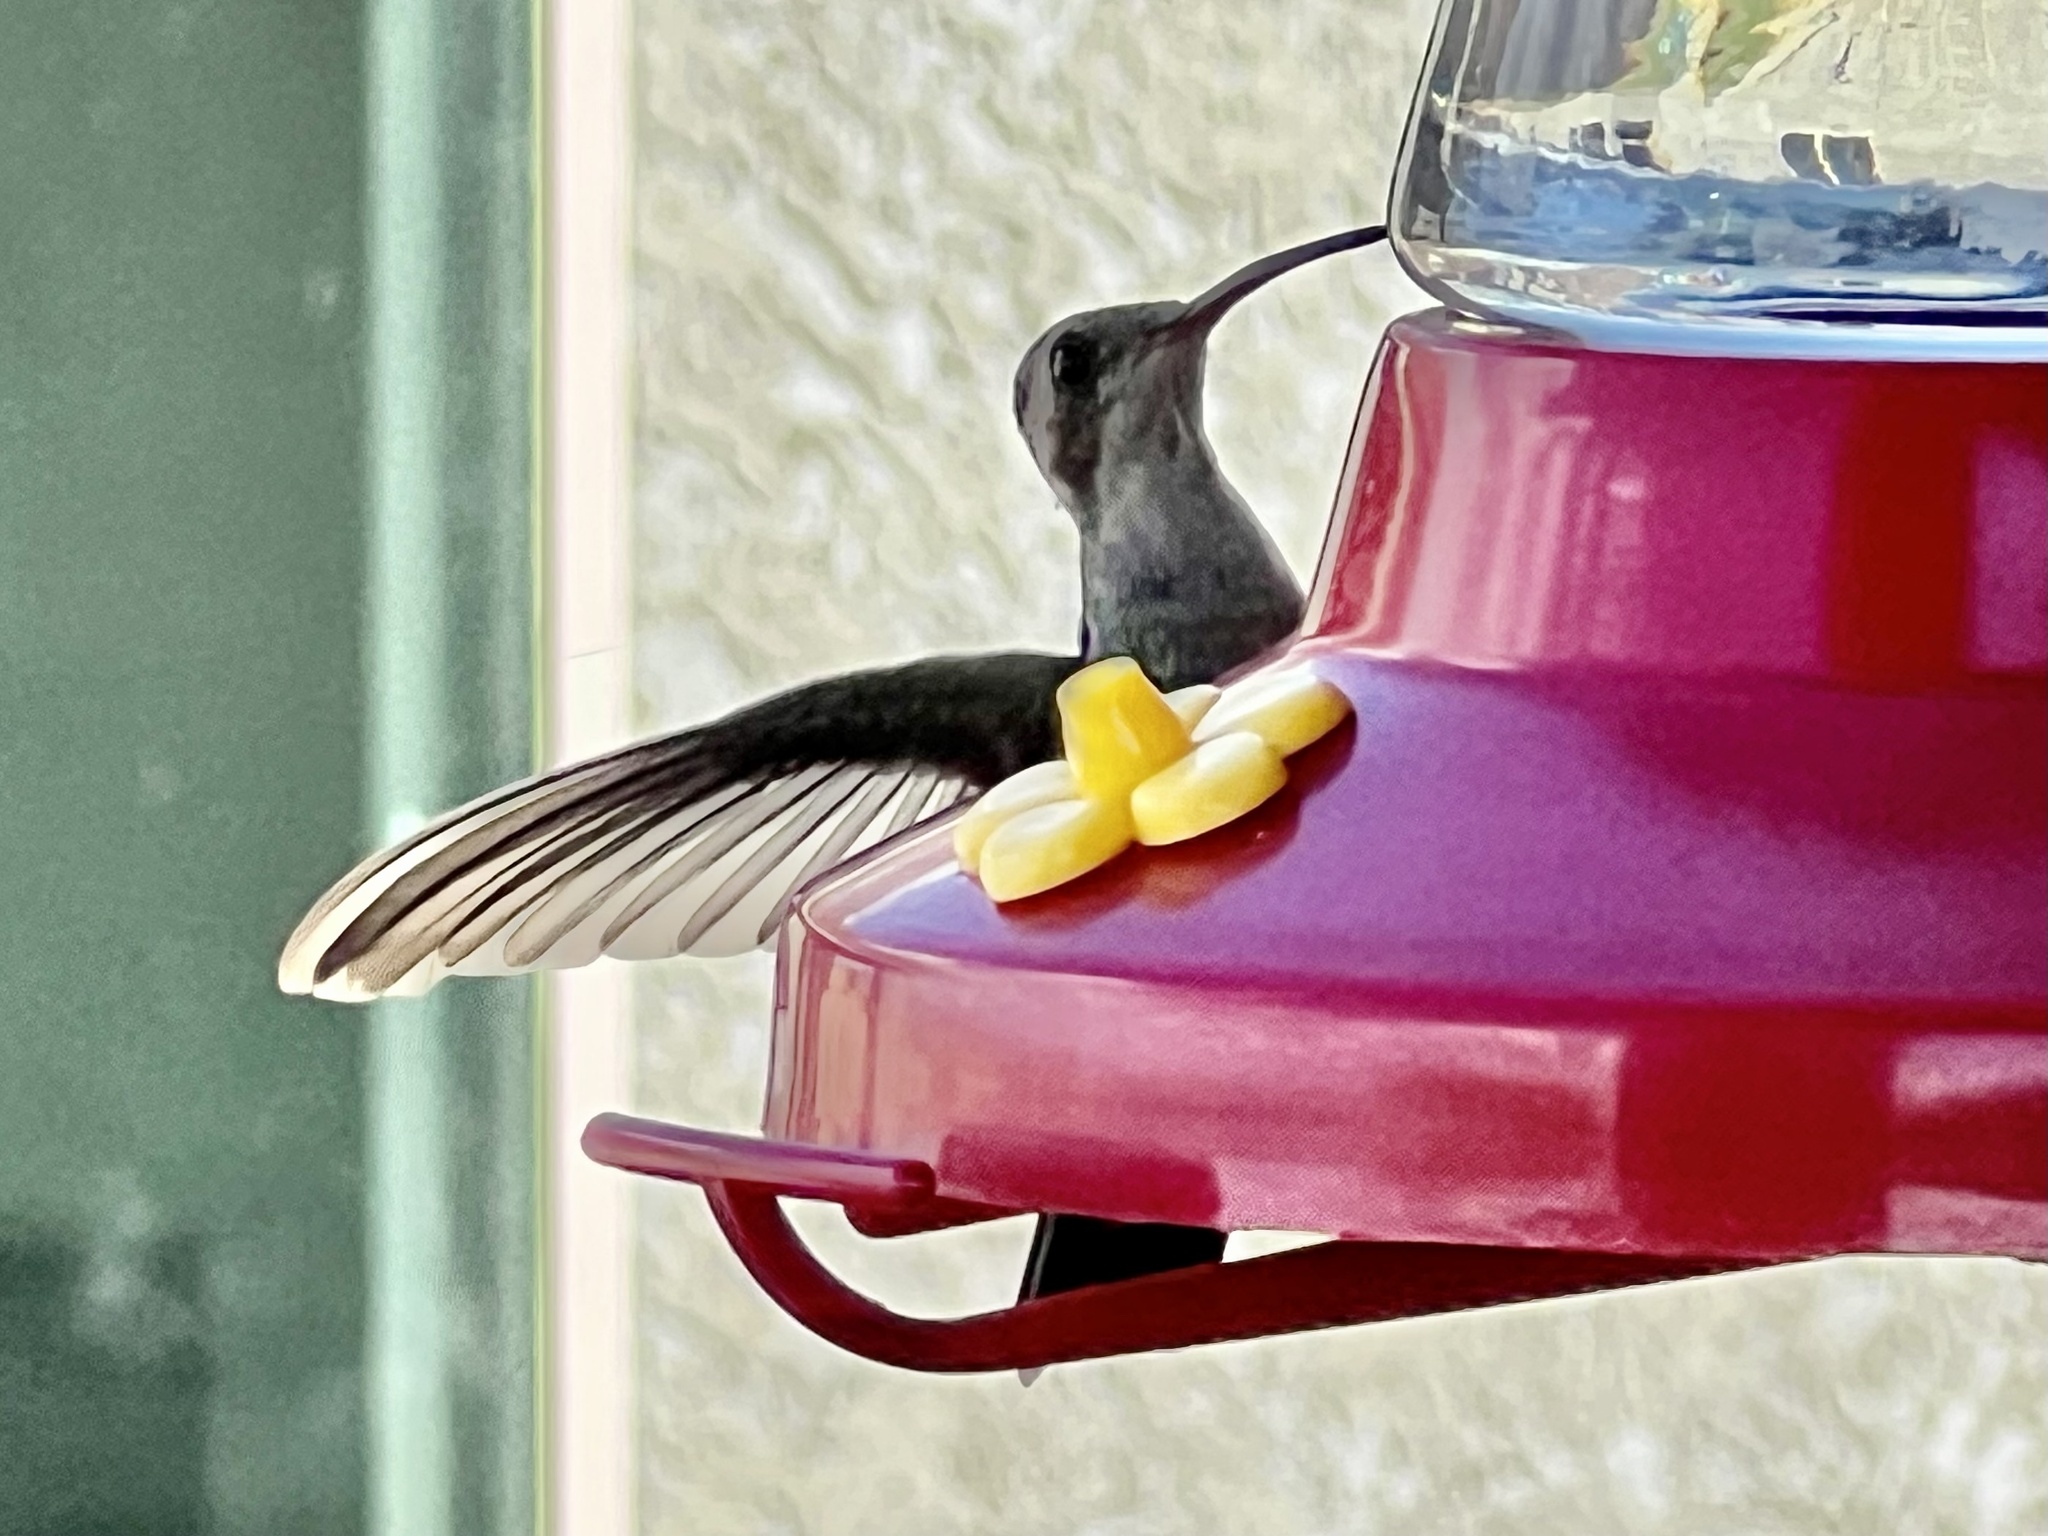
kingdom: Animalia
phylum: Chordata
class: Aves
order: Apodiformes
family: Trochilidae
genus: Cynanthus
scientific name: Cynanthus latirostris
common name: Broad-billed hummingbird
